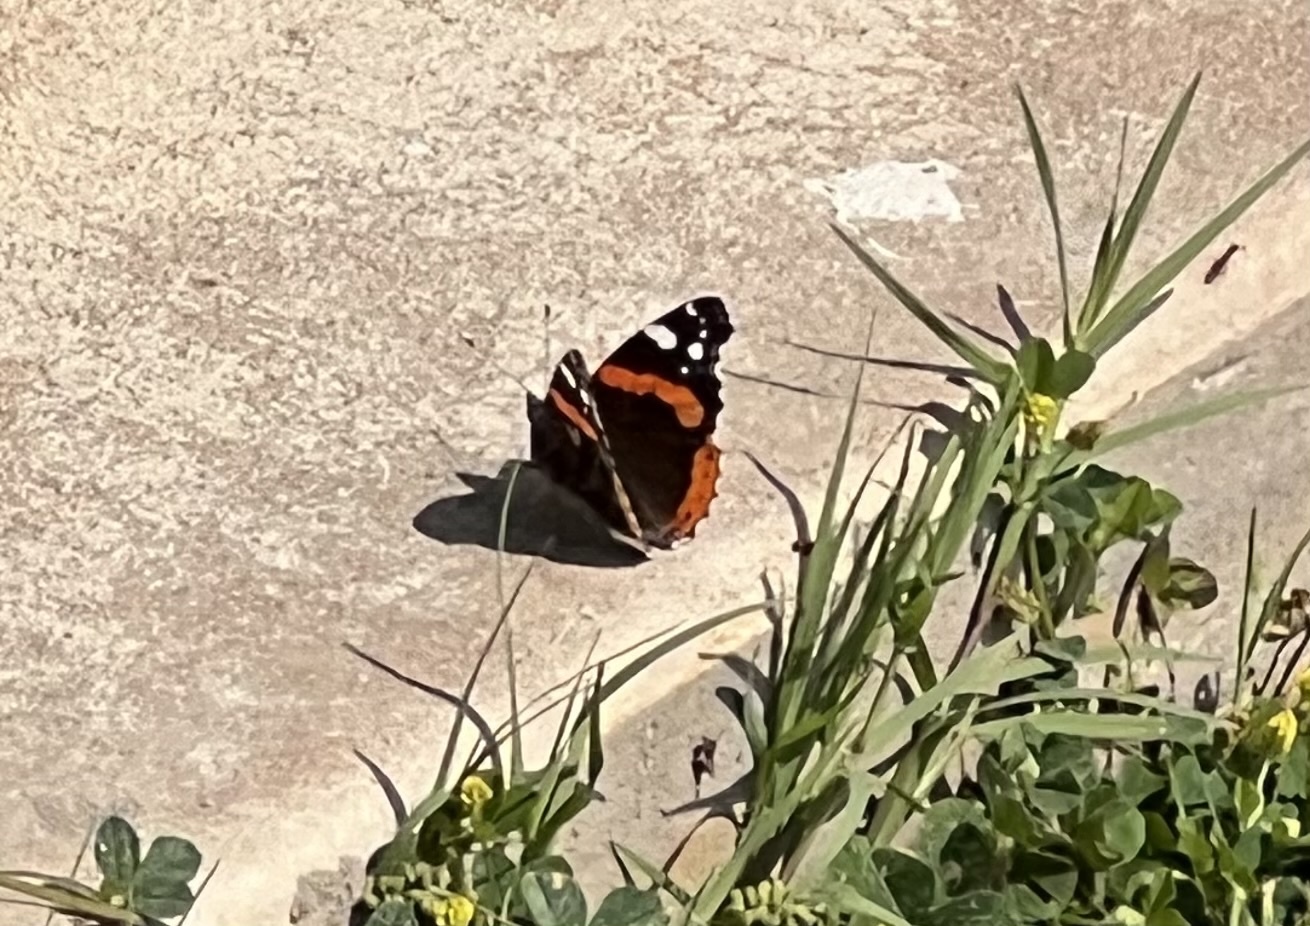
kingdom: Animalia
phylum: Arthropoda
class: Insecta
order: Lepidoptera
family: Nymphalidae
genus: Vanessa
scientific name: Vanessa atalanta
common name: Red admiral
